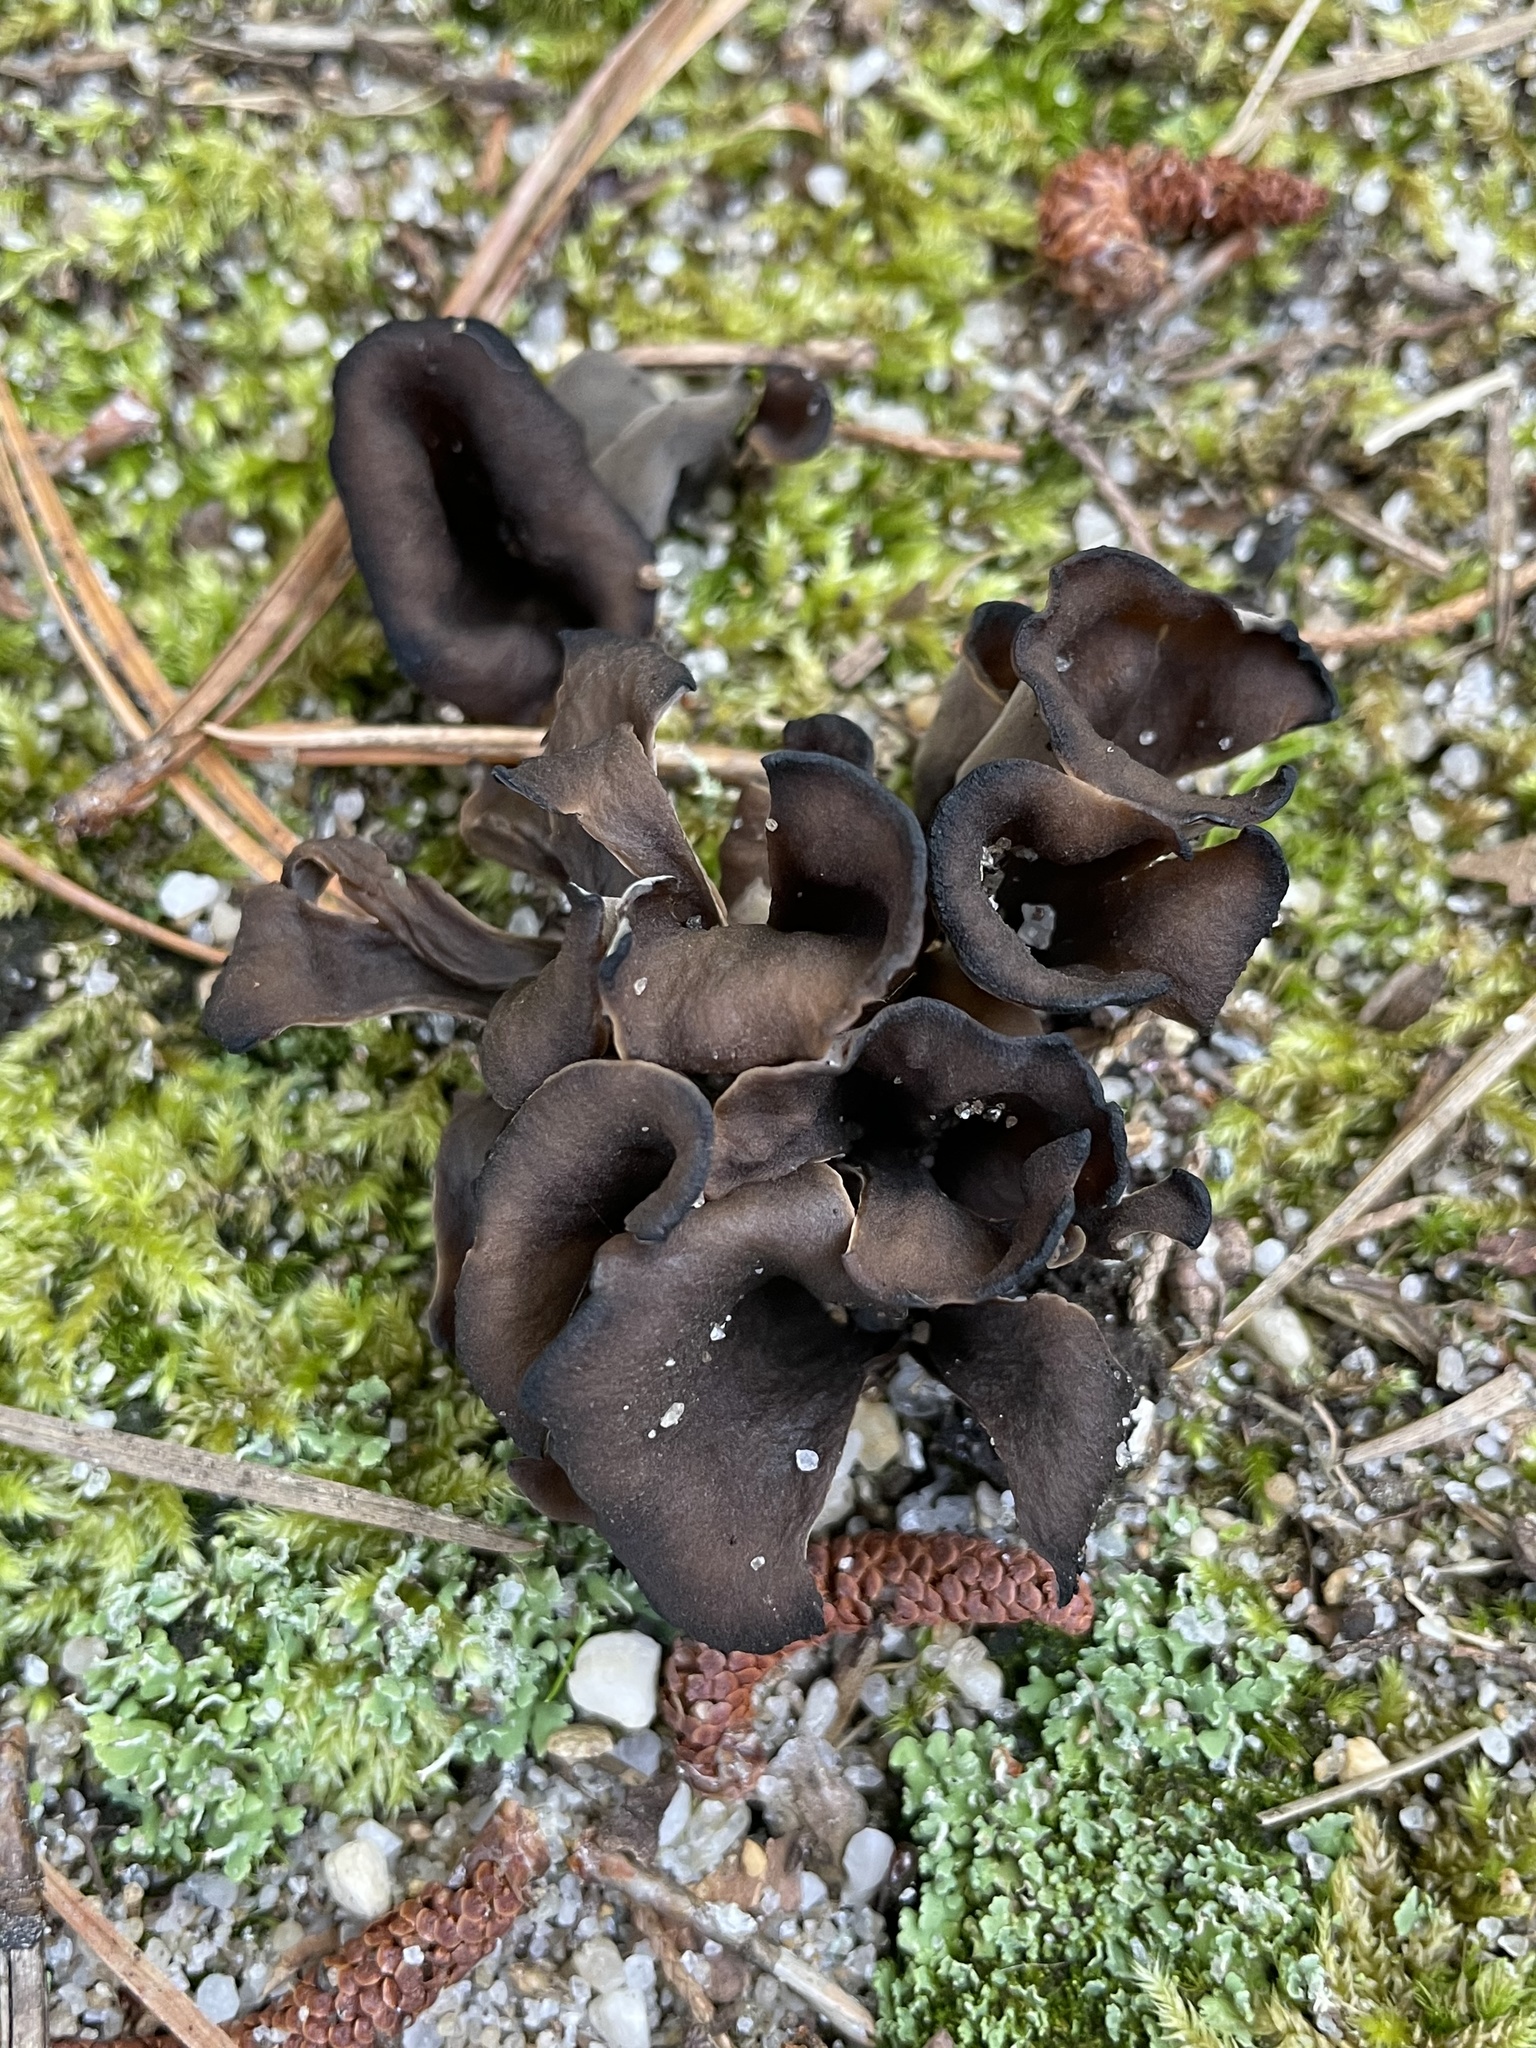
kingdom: Fungi
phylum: Basidiomycota
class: Agaricomycetes
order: Cantharellales
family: Hydnaceae
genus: Craterellus
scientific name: Craterellus cornucopioides
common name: Horn of plenty
